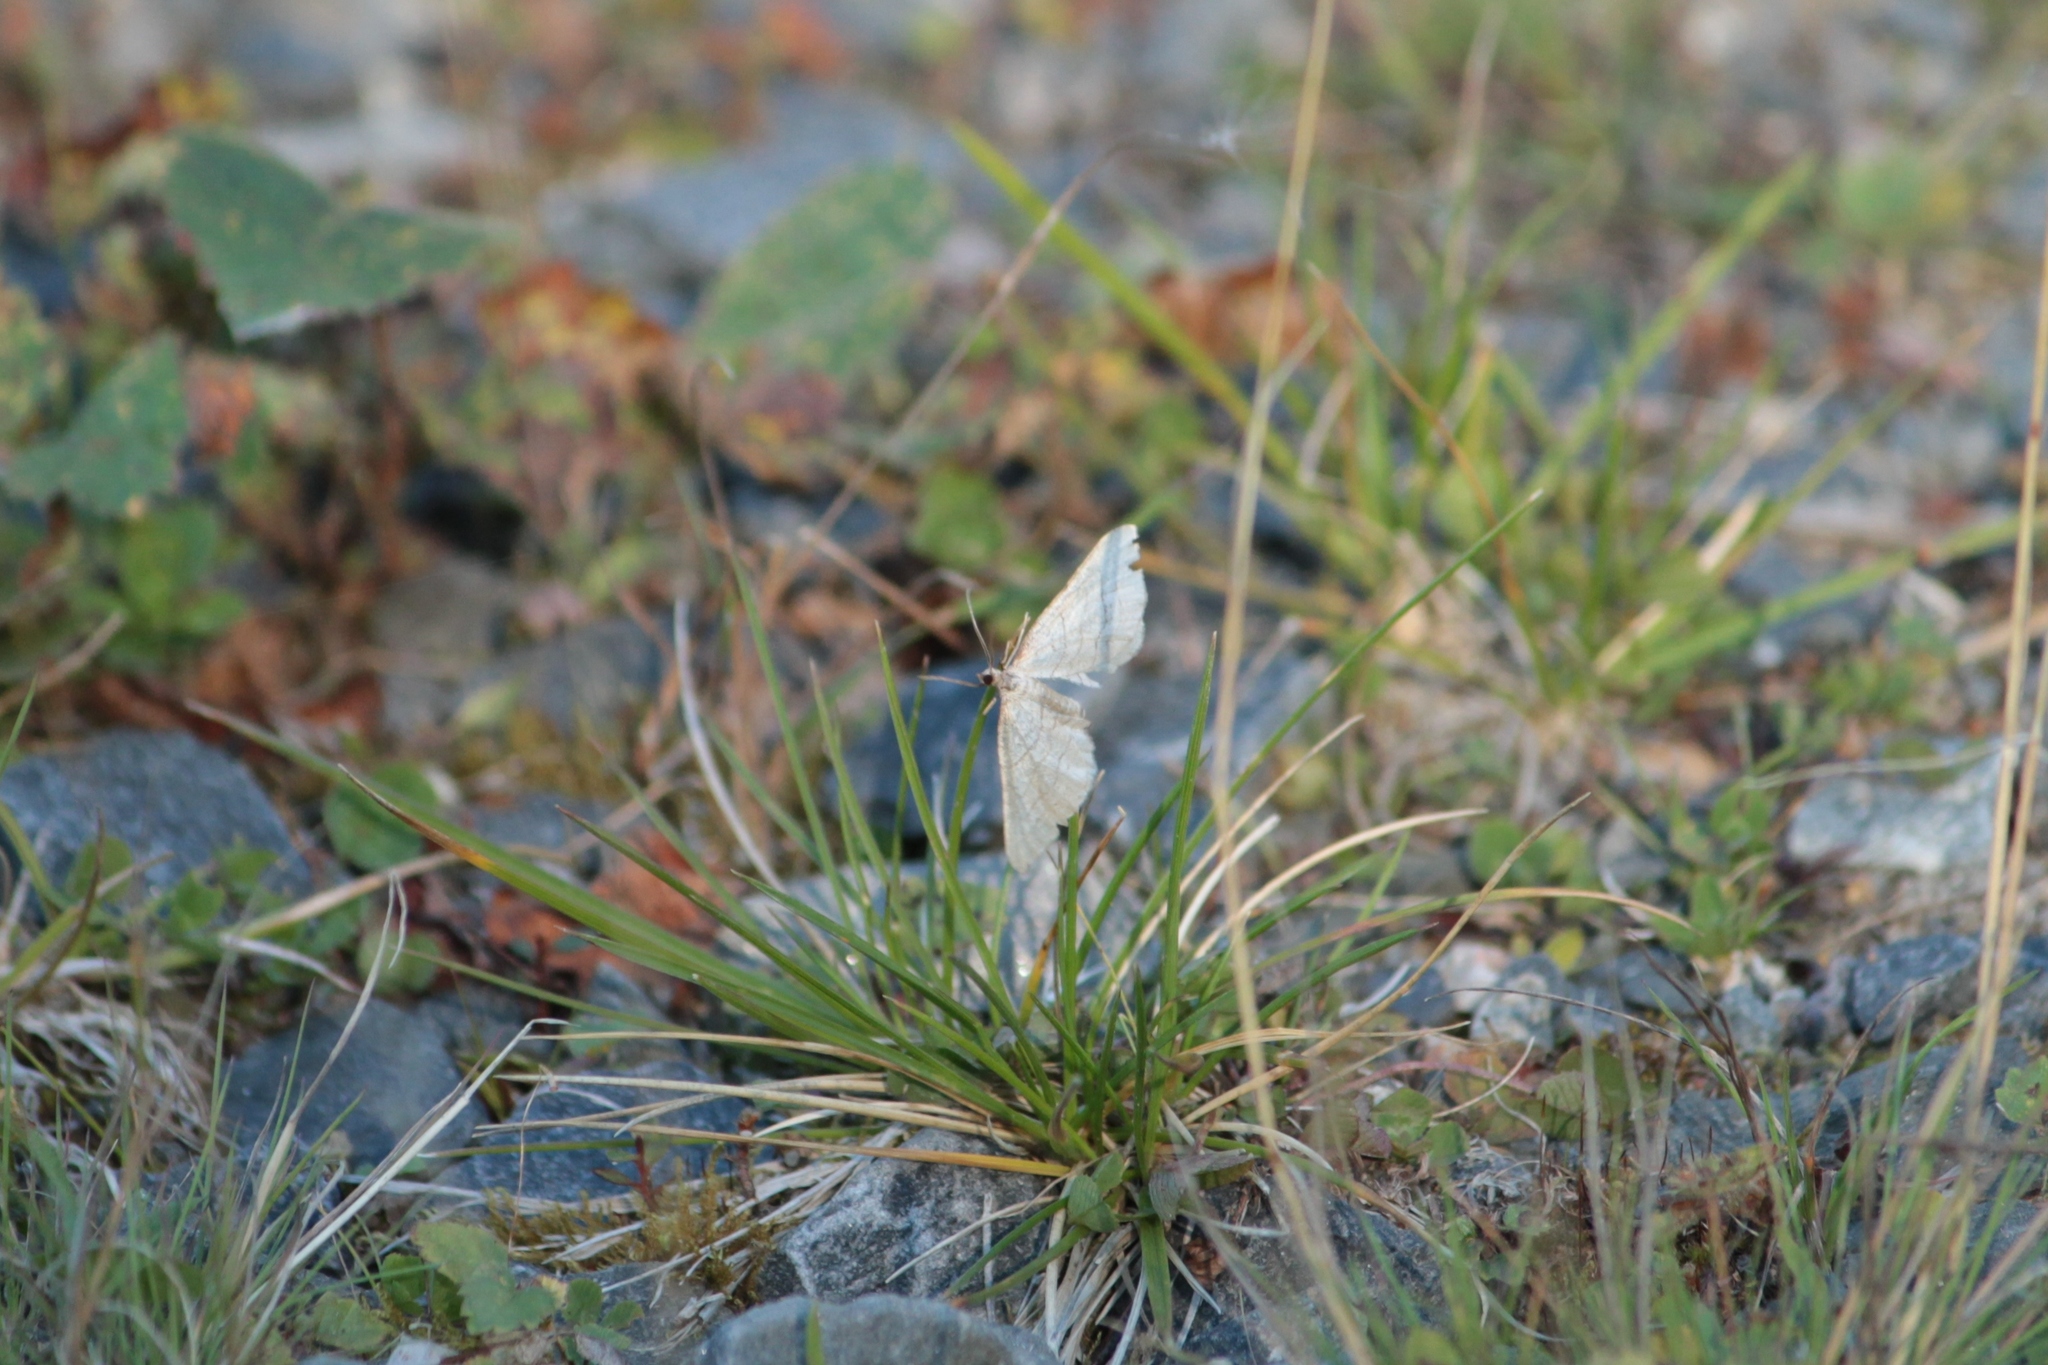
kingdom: Animalia
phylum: Arthropoda
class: Insecta
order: Lepidoptera
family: Geometridae
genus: Coenocalpe
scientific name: Coenocalpe lapidata
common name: Slender-striped rufous
